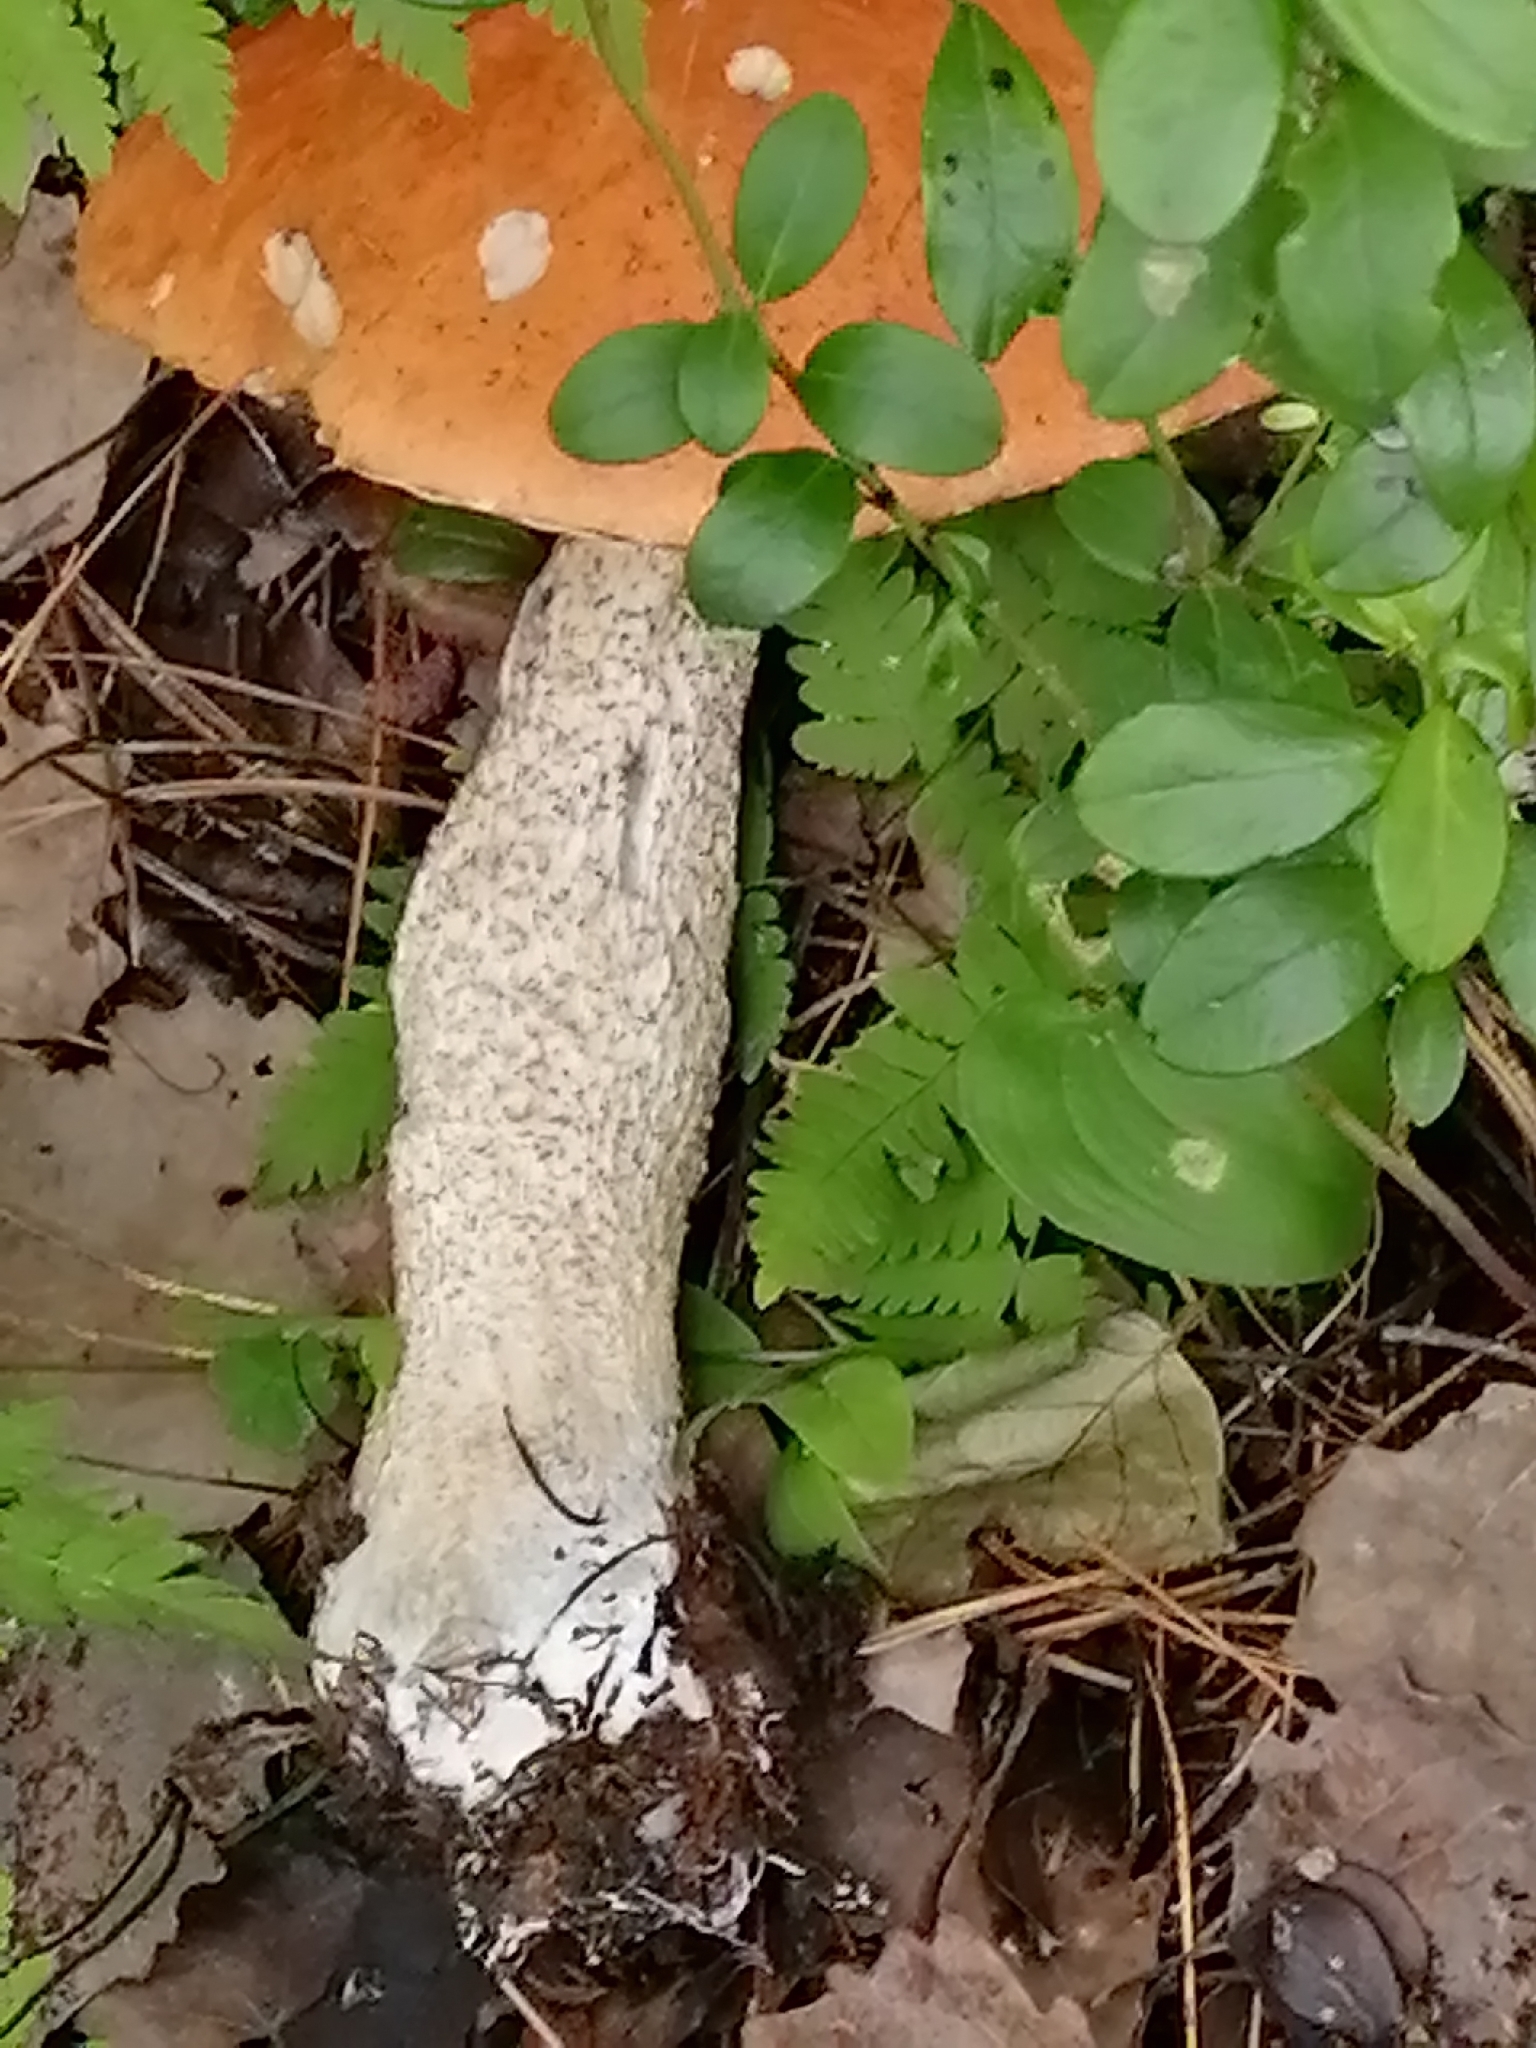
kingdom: Fungi
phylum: Basidiomycota
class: Agaricomycetes
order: Boletales
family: Boletaceae
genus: Leccinum
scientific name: Leccinum versipelle
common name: Orange birch bolete
